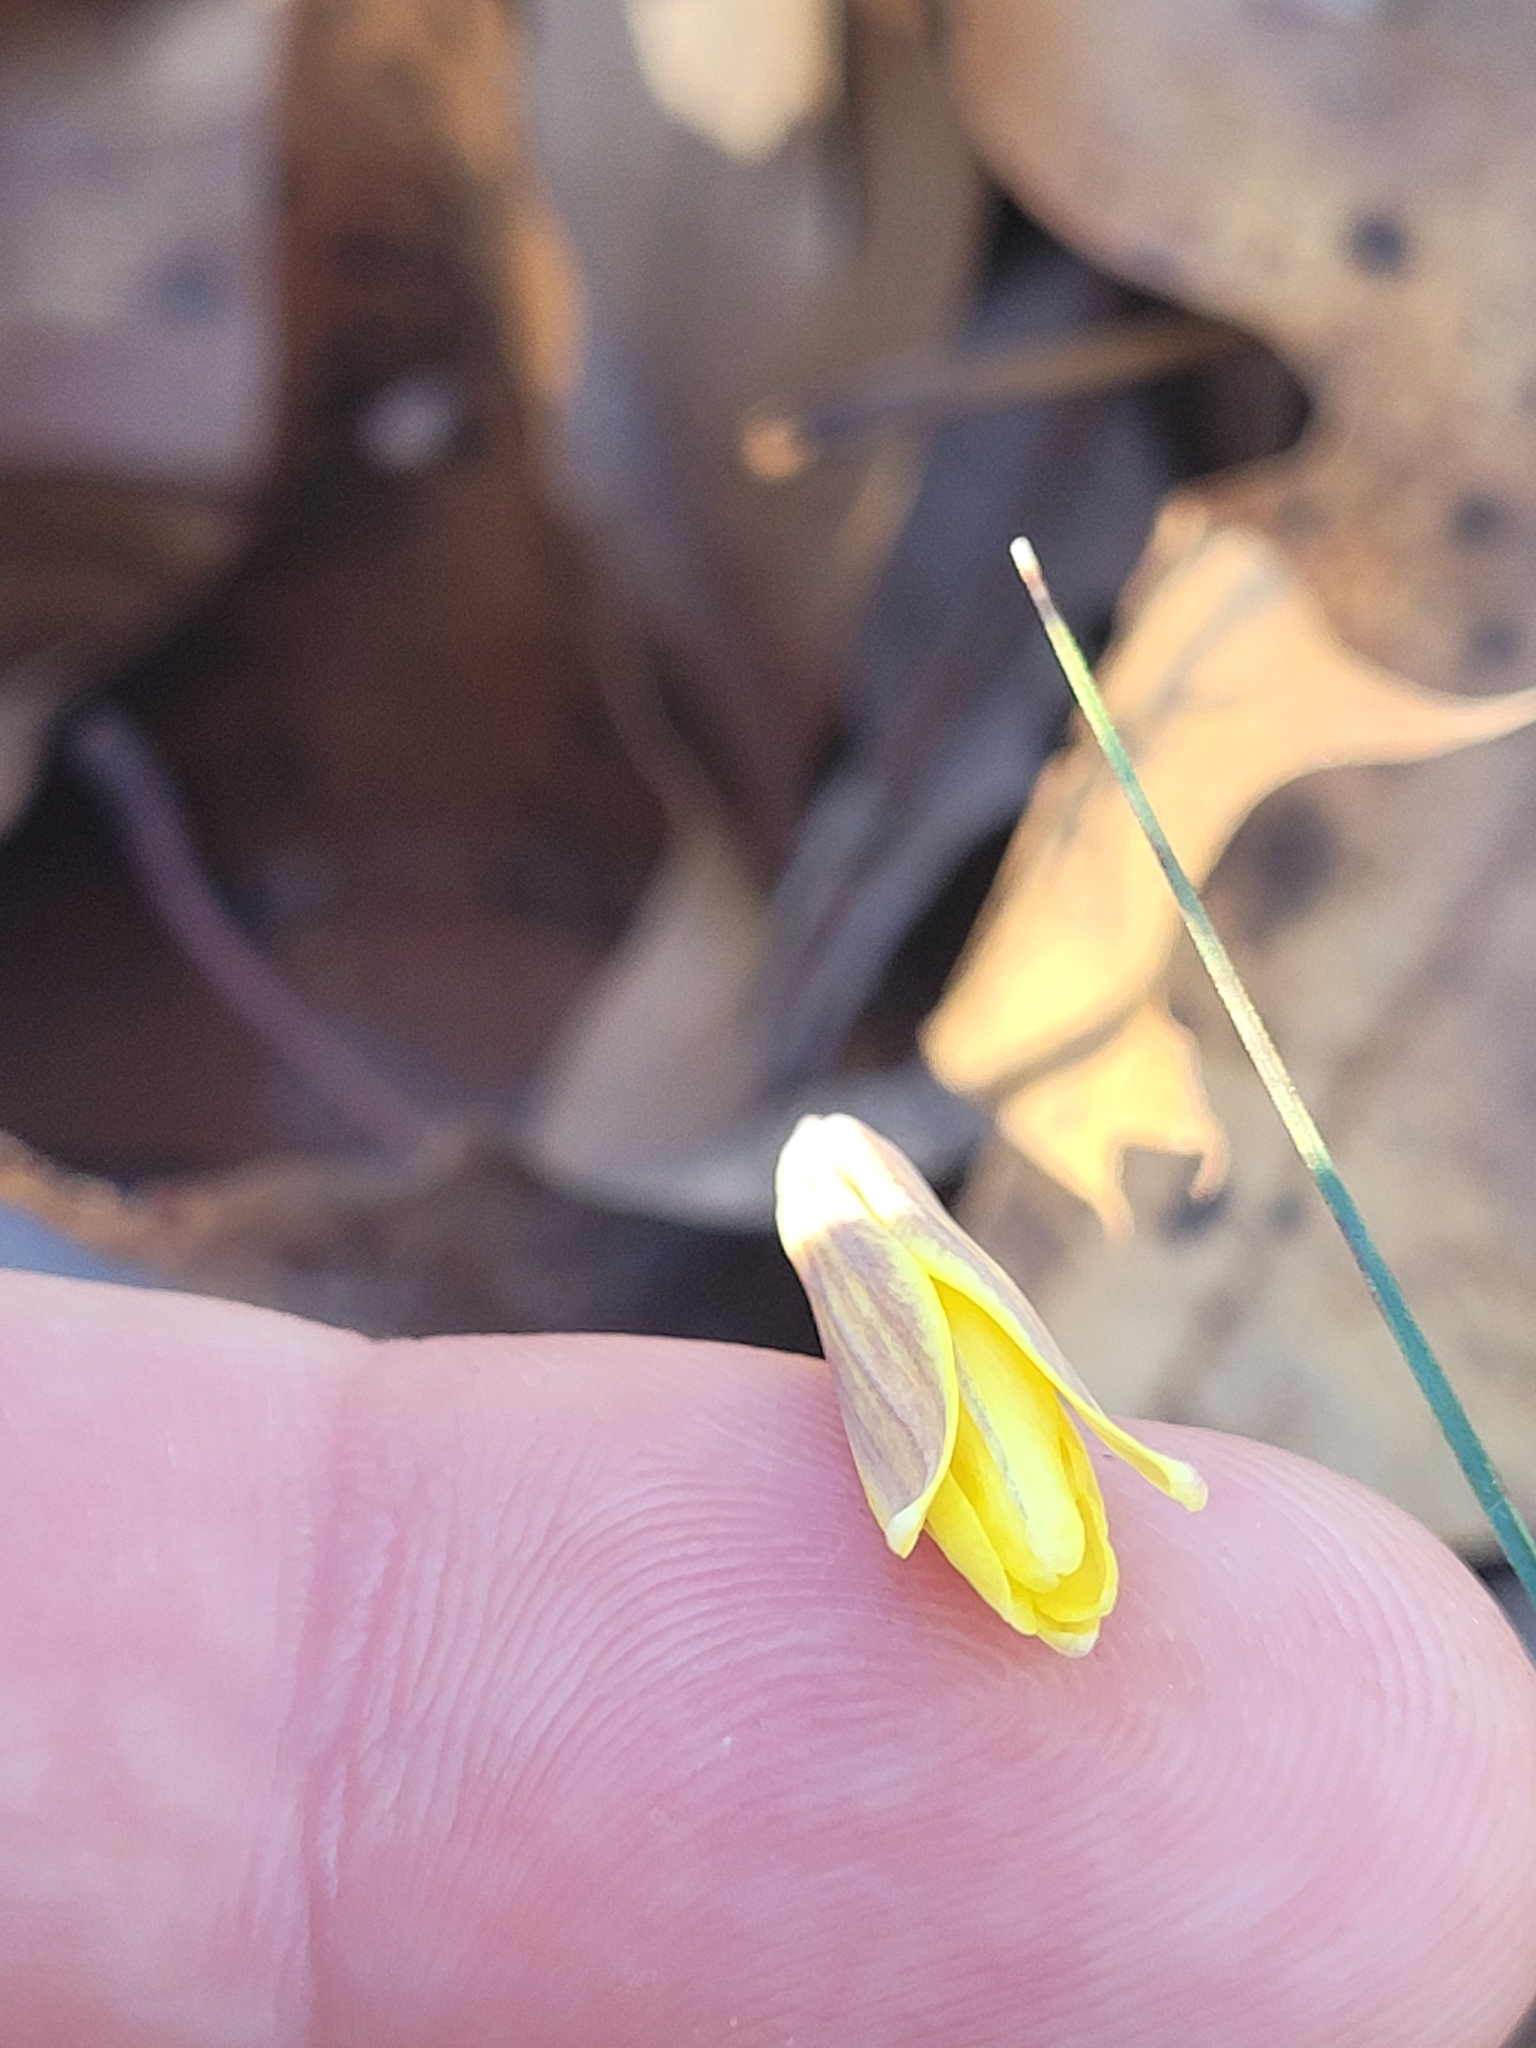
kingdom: Plantae
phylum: Tracheophyta
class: Liliopsida
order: Liliales
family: Liliaceae
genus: Erythronium
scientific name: Erythronium umbilicatum
